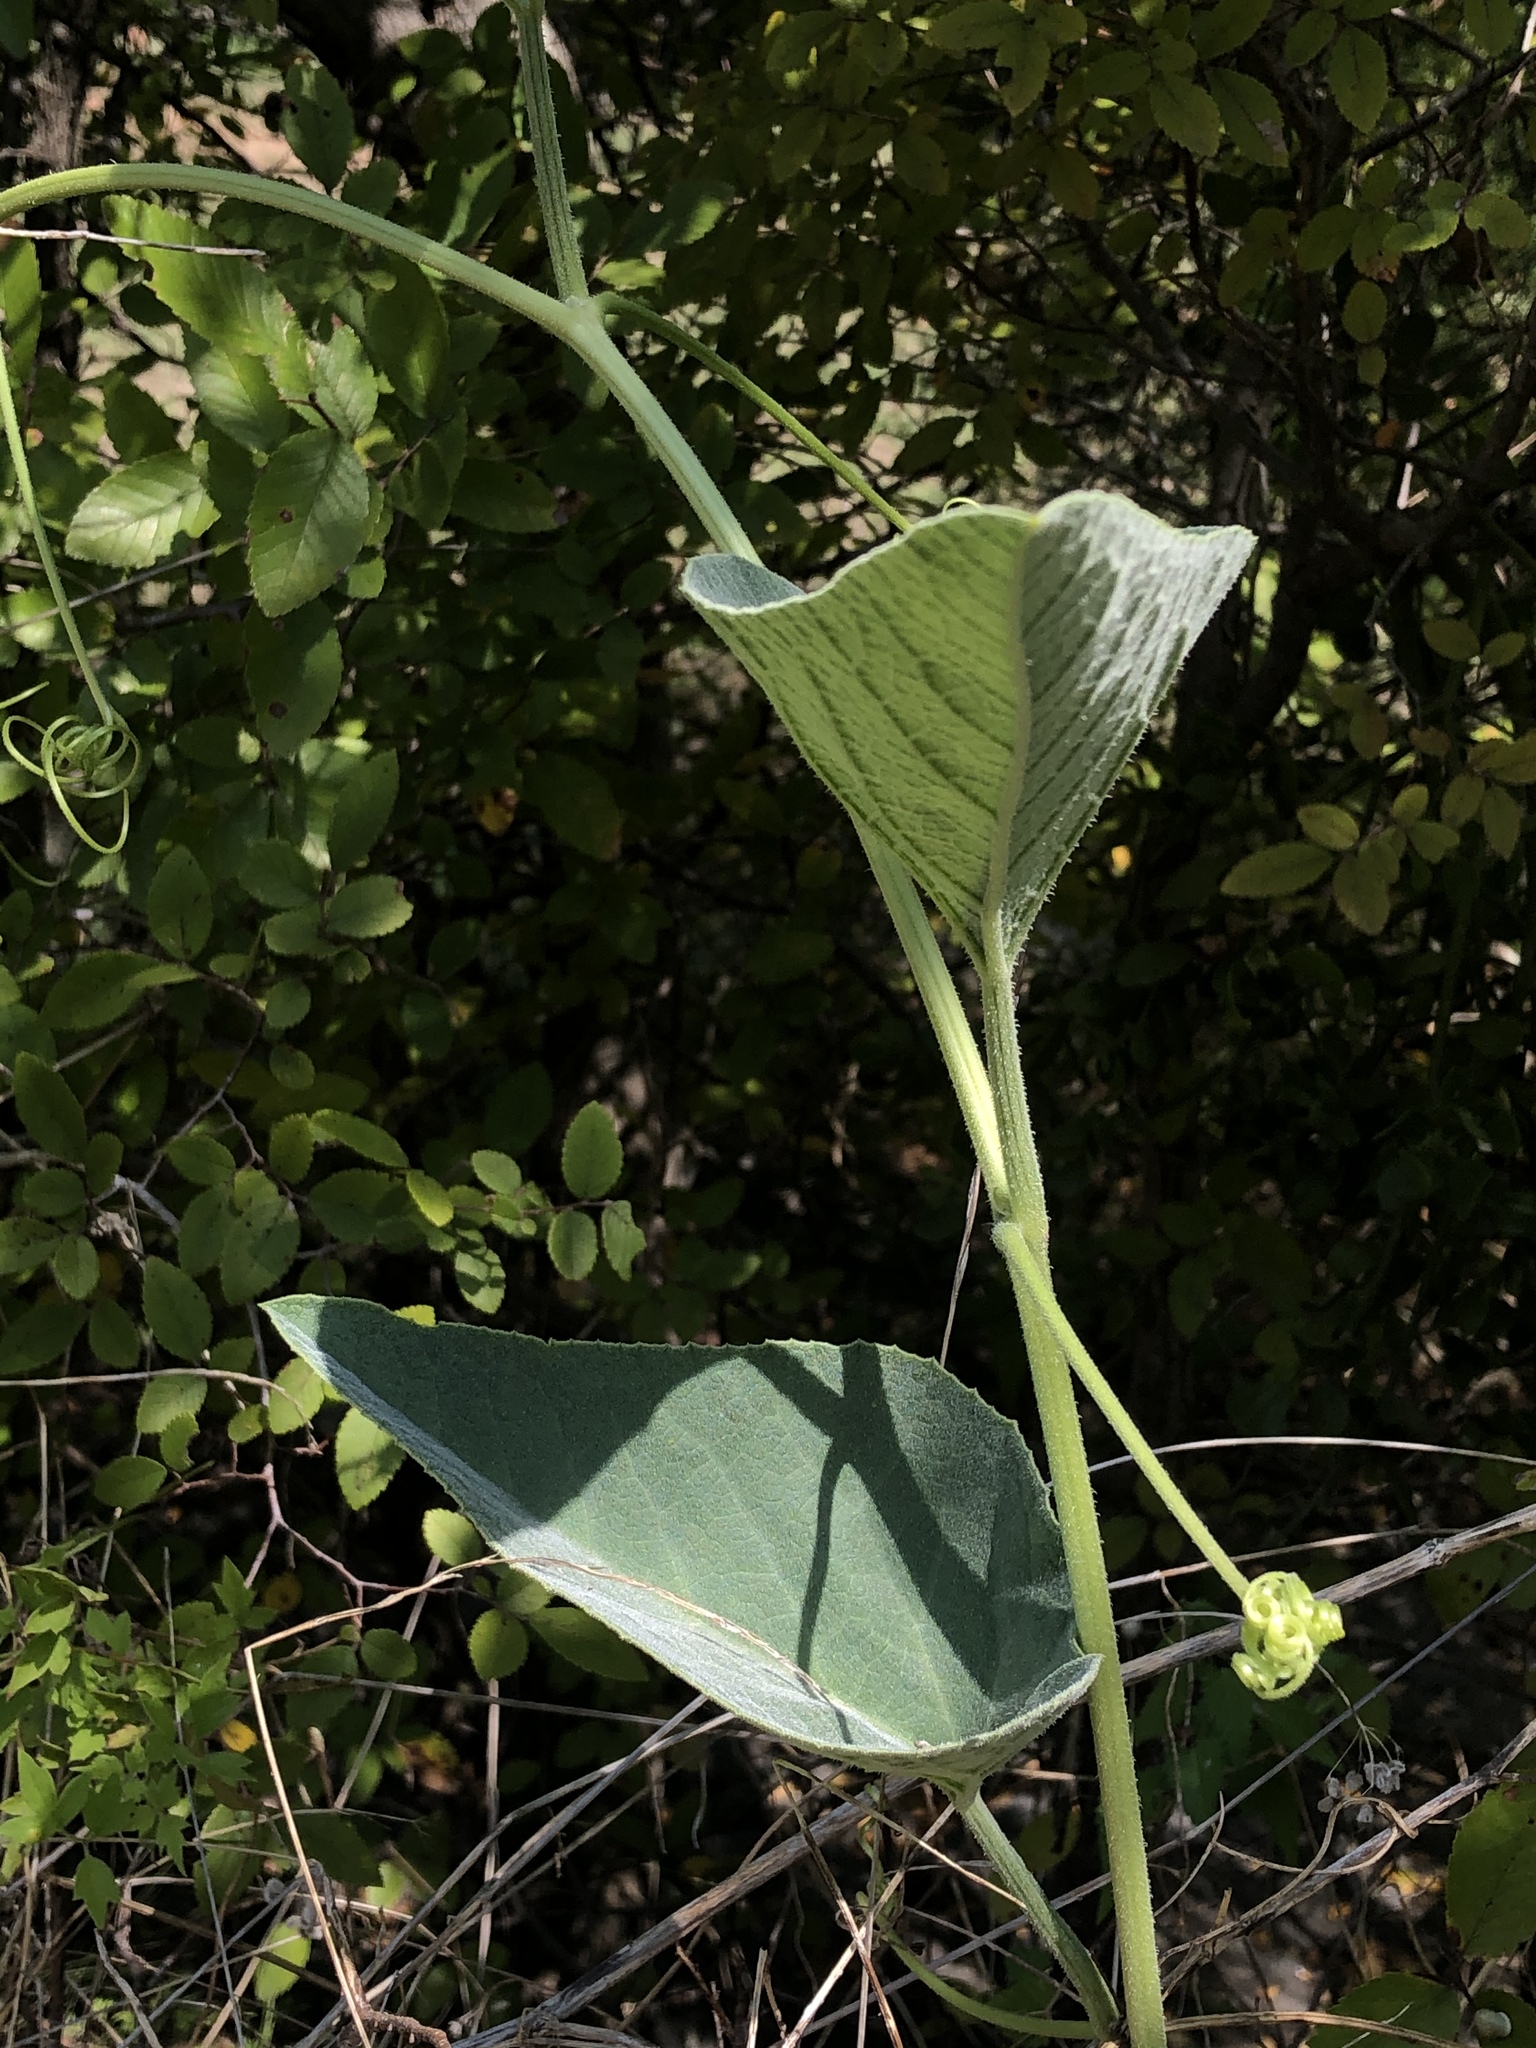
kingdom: Plantae
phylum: Tracheophyta
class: Magnoliopsida
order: Cucurbitales
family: Cucurbitaceae
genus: Cucurbita
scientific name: Cucurbita foetidissima
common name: Buffalo gourd
